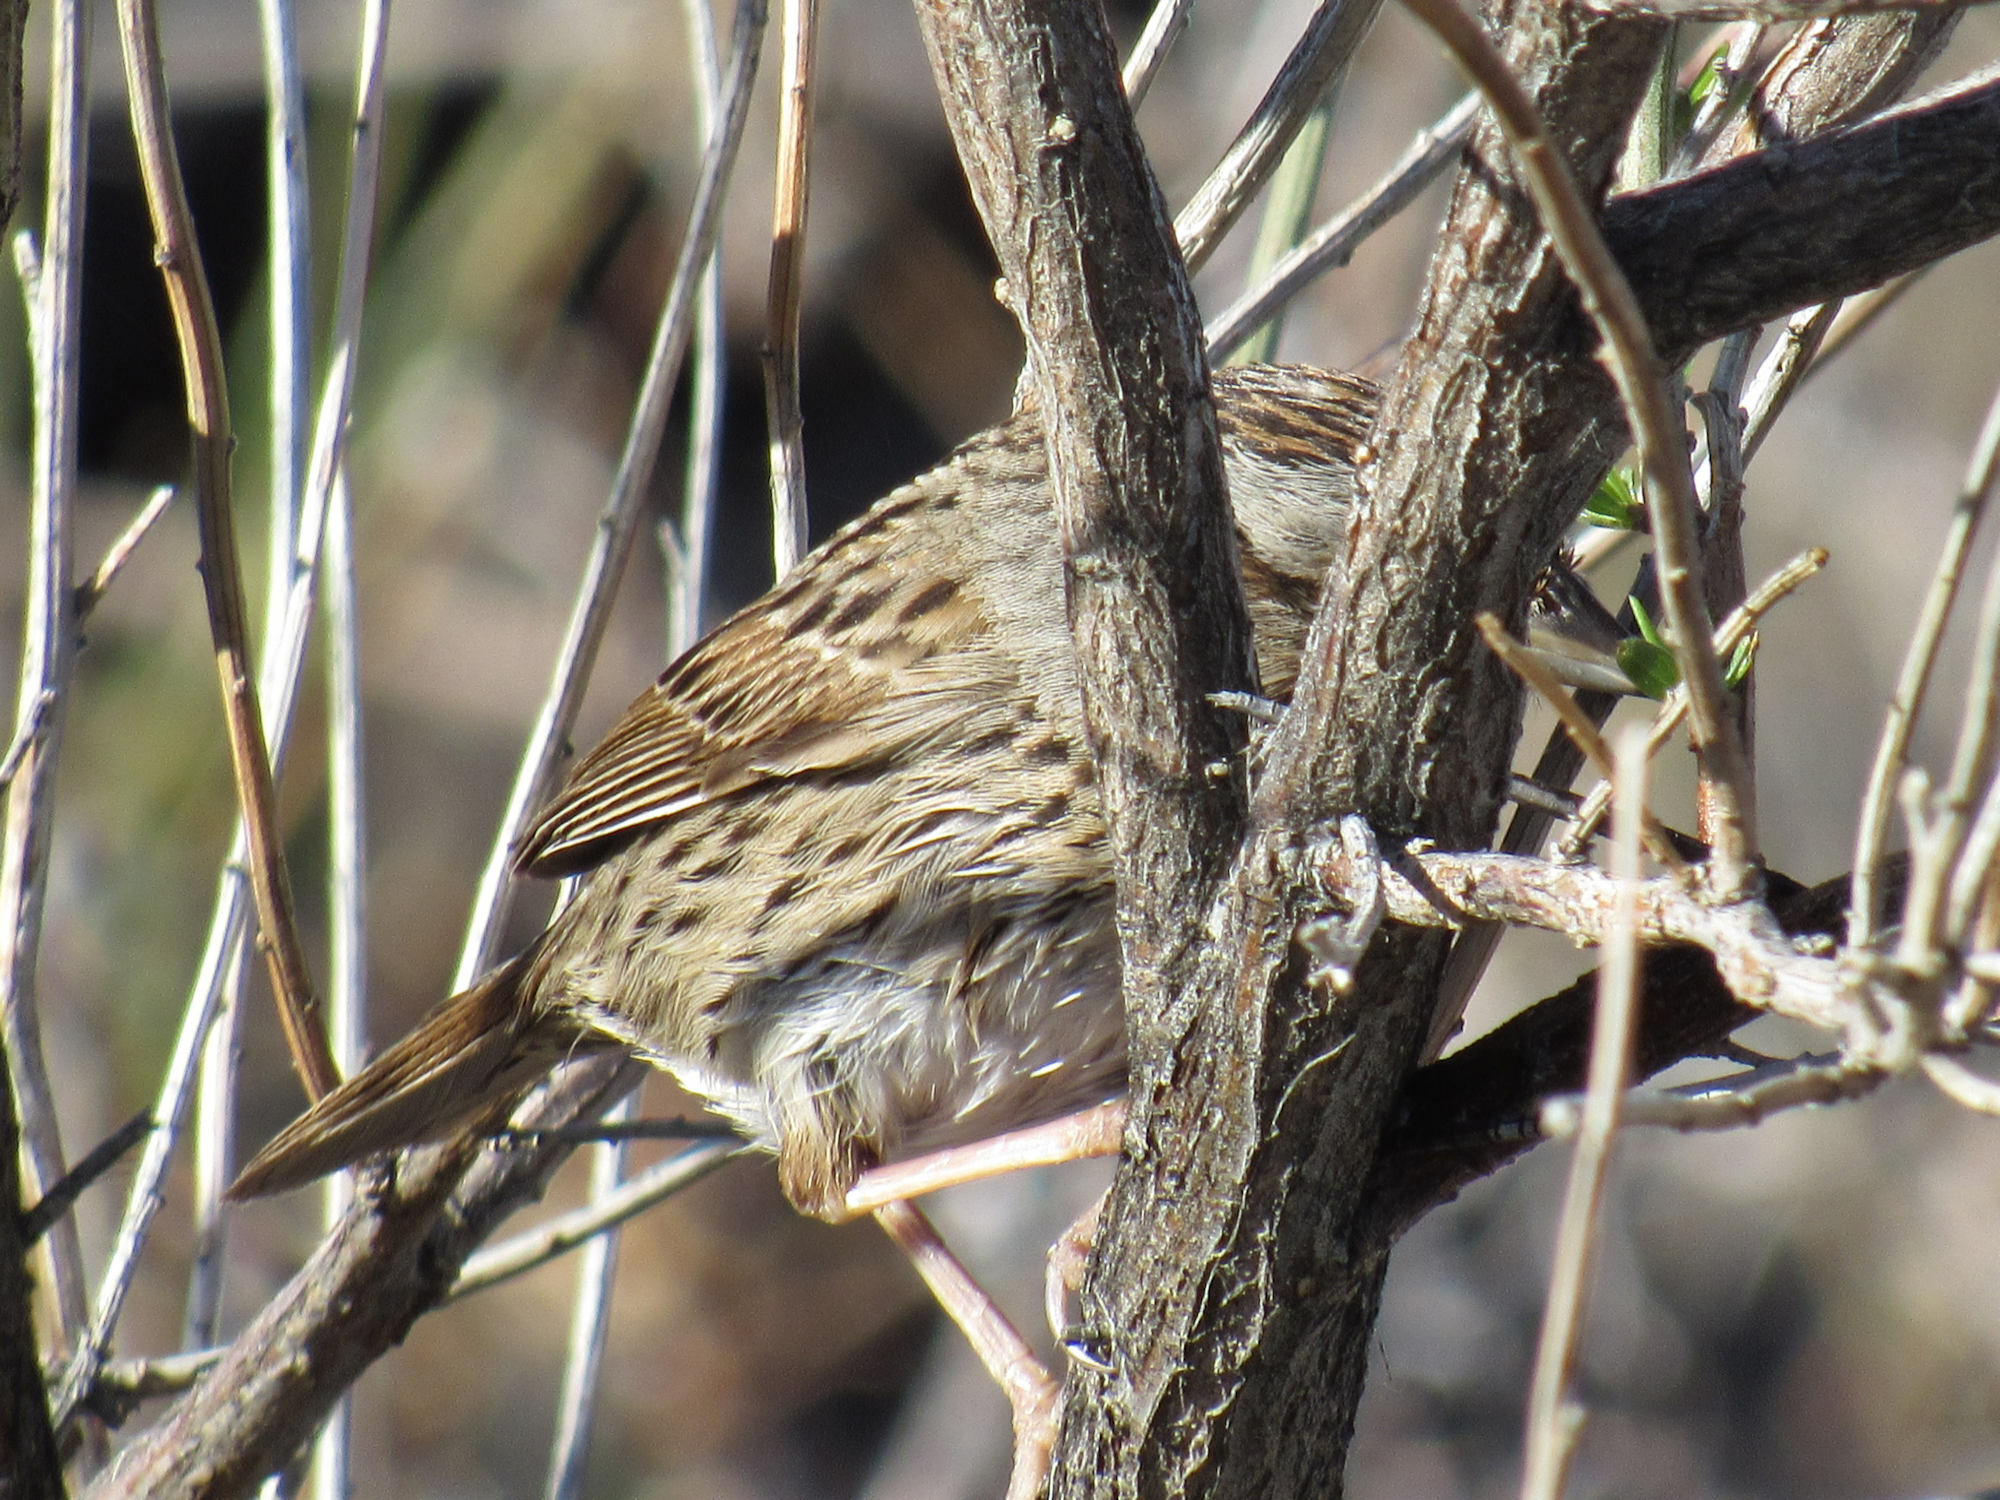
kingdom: Animalia
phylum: Chordata
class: Aves
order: Passeriformes
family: Passerellidae
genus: Melospiza
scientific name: Melospiza lincolnii
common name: Lincoln's sparrow
